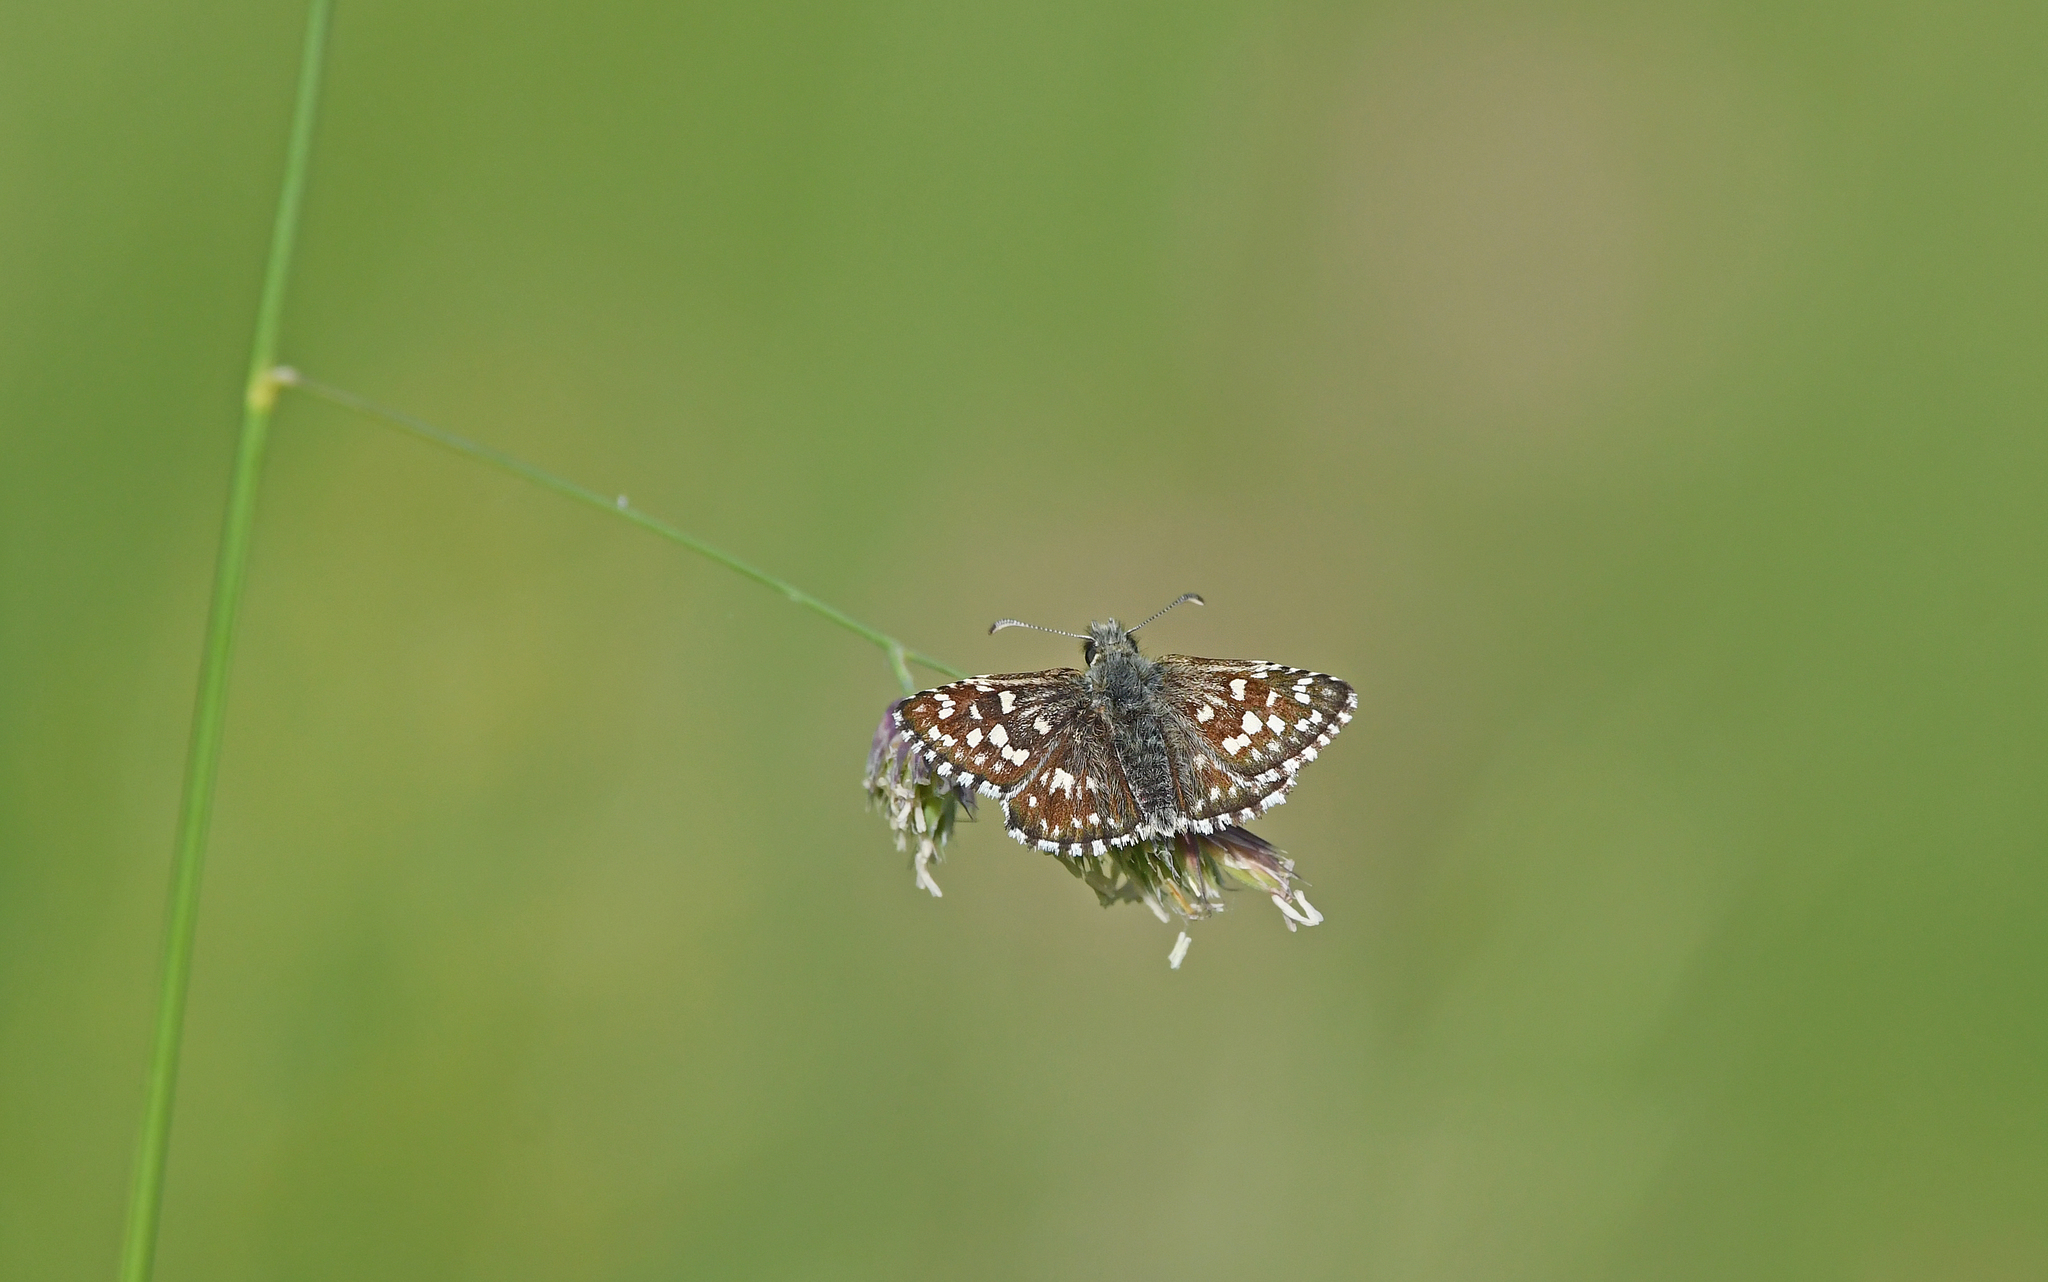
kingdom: Animalia
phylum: Arthropoda
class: Insecta
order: Lepidoptera
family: Hesperiidae
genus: Pyrgus
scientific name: Pyrgus malvae
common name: Grizzled skipper
